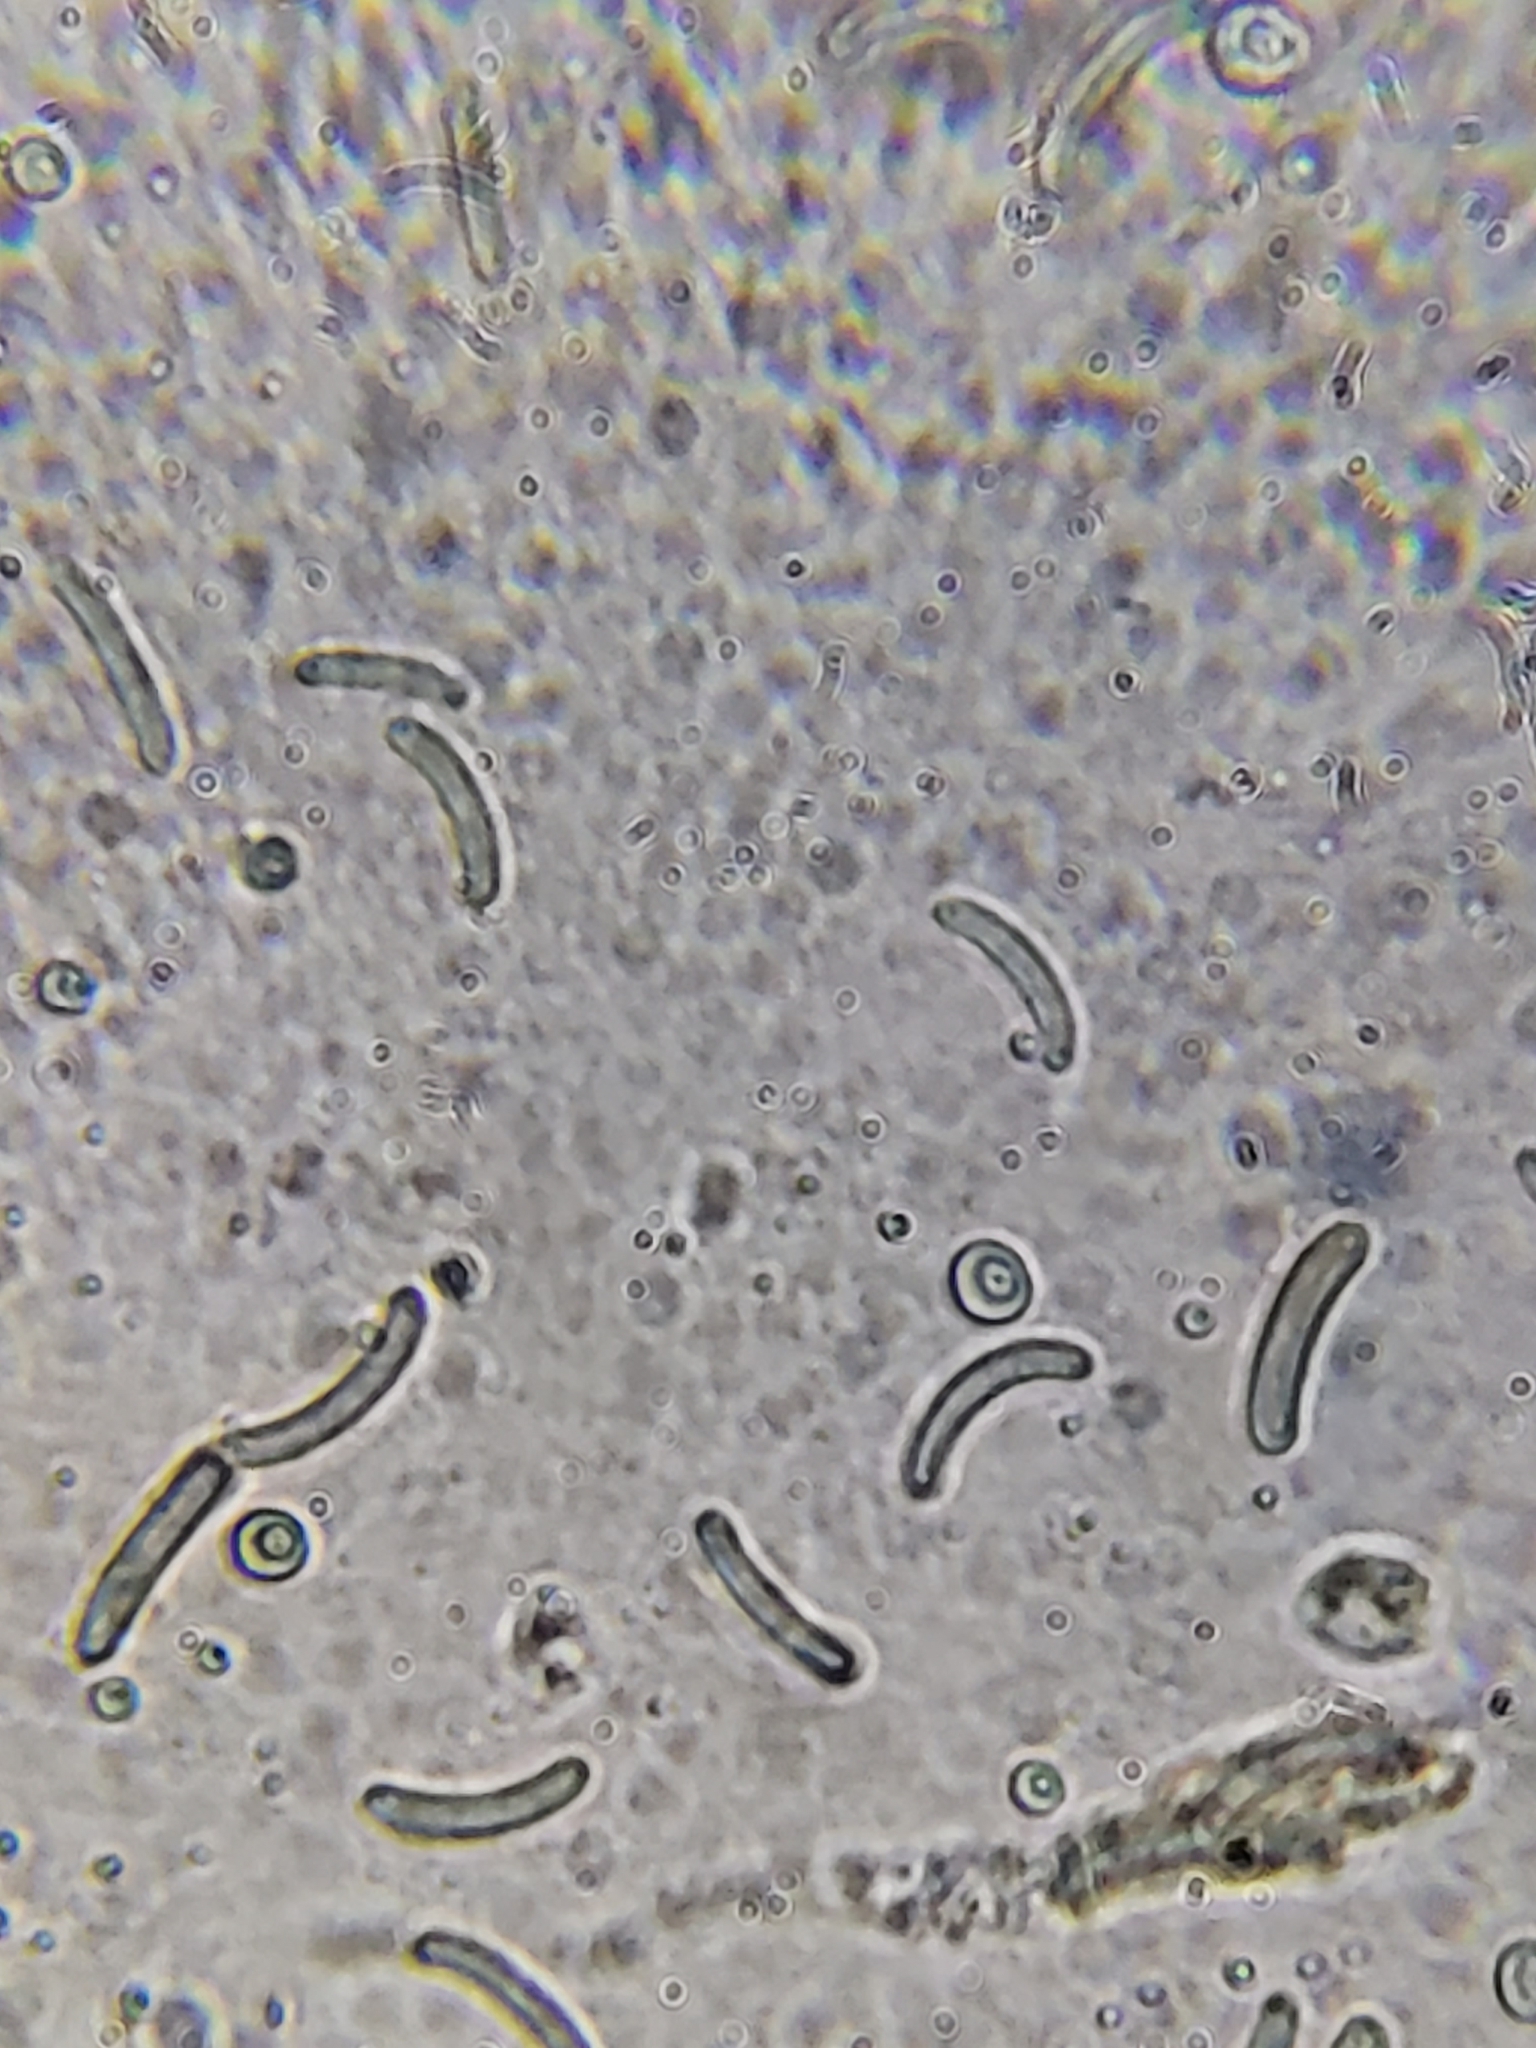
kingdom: Fungi
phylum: Ascomycota
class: Sordariomycetes
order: Xylariales
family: Diatrypaceae
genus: Diatrype
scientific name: Diatrype virescens
